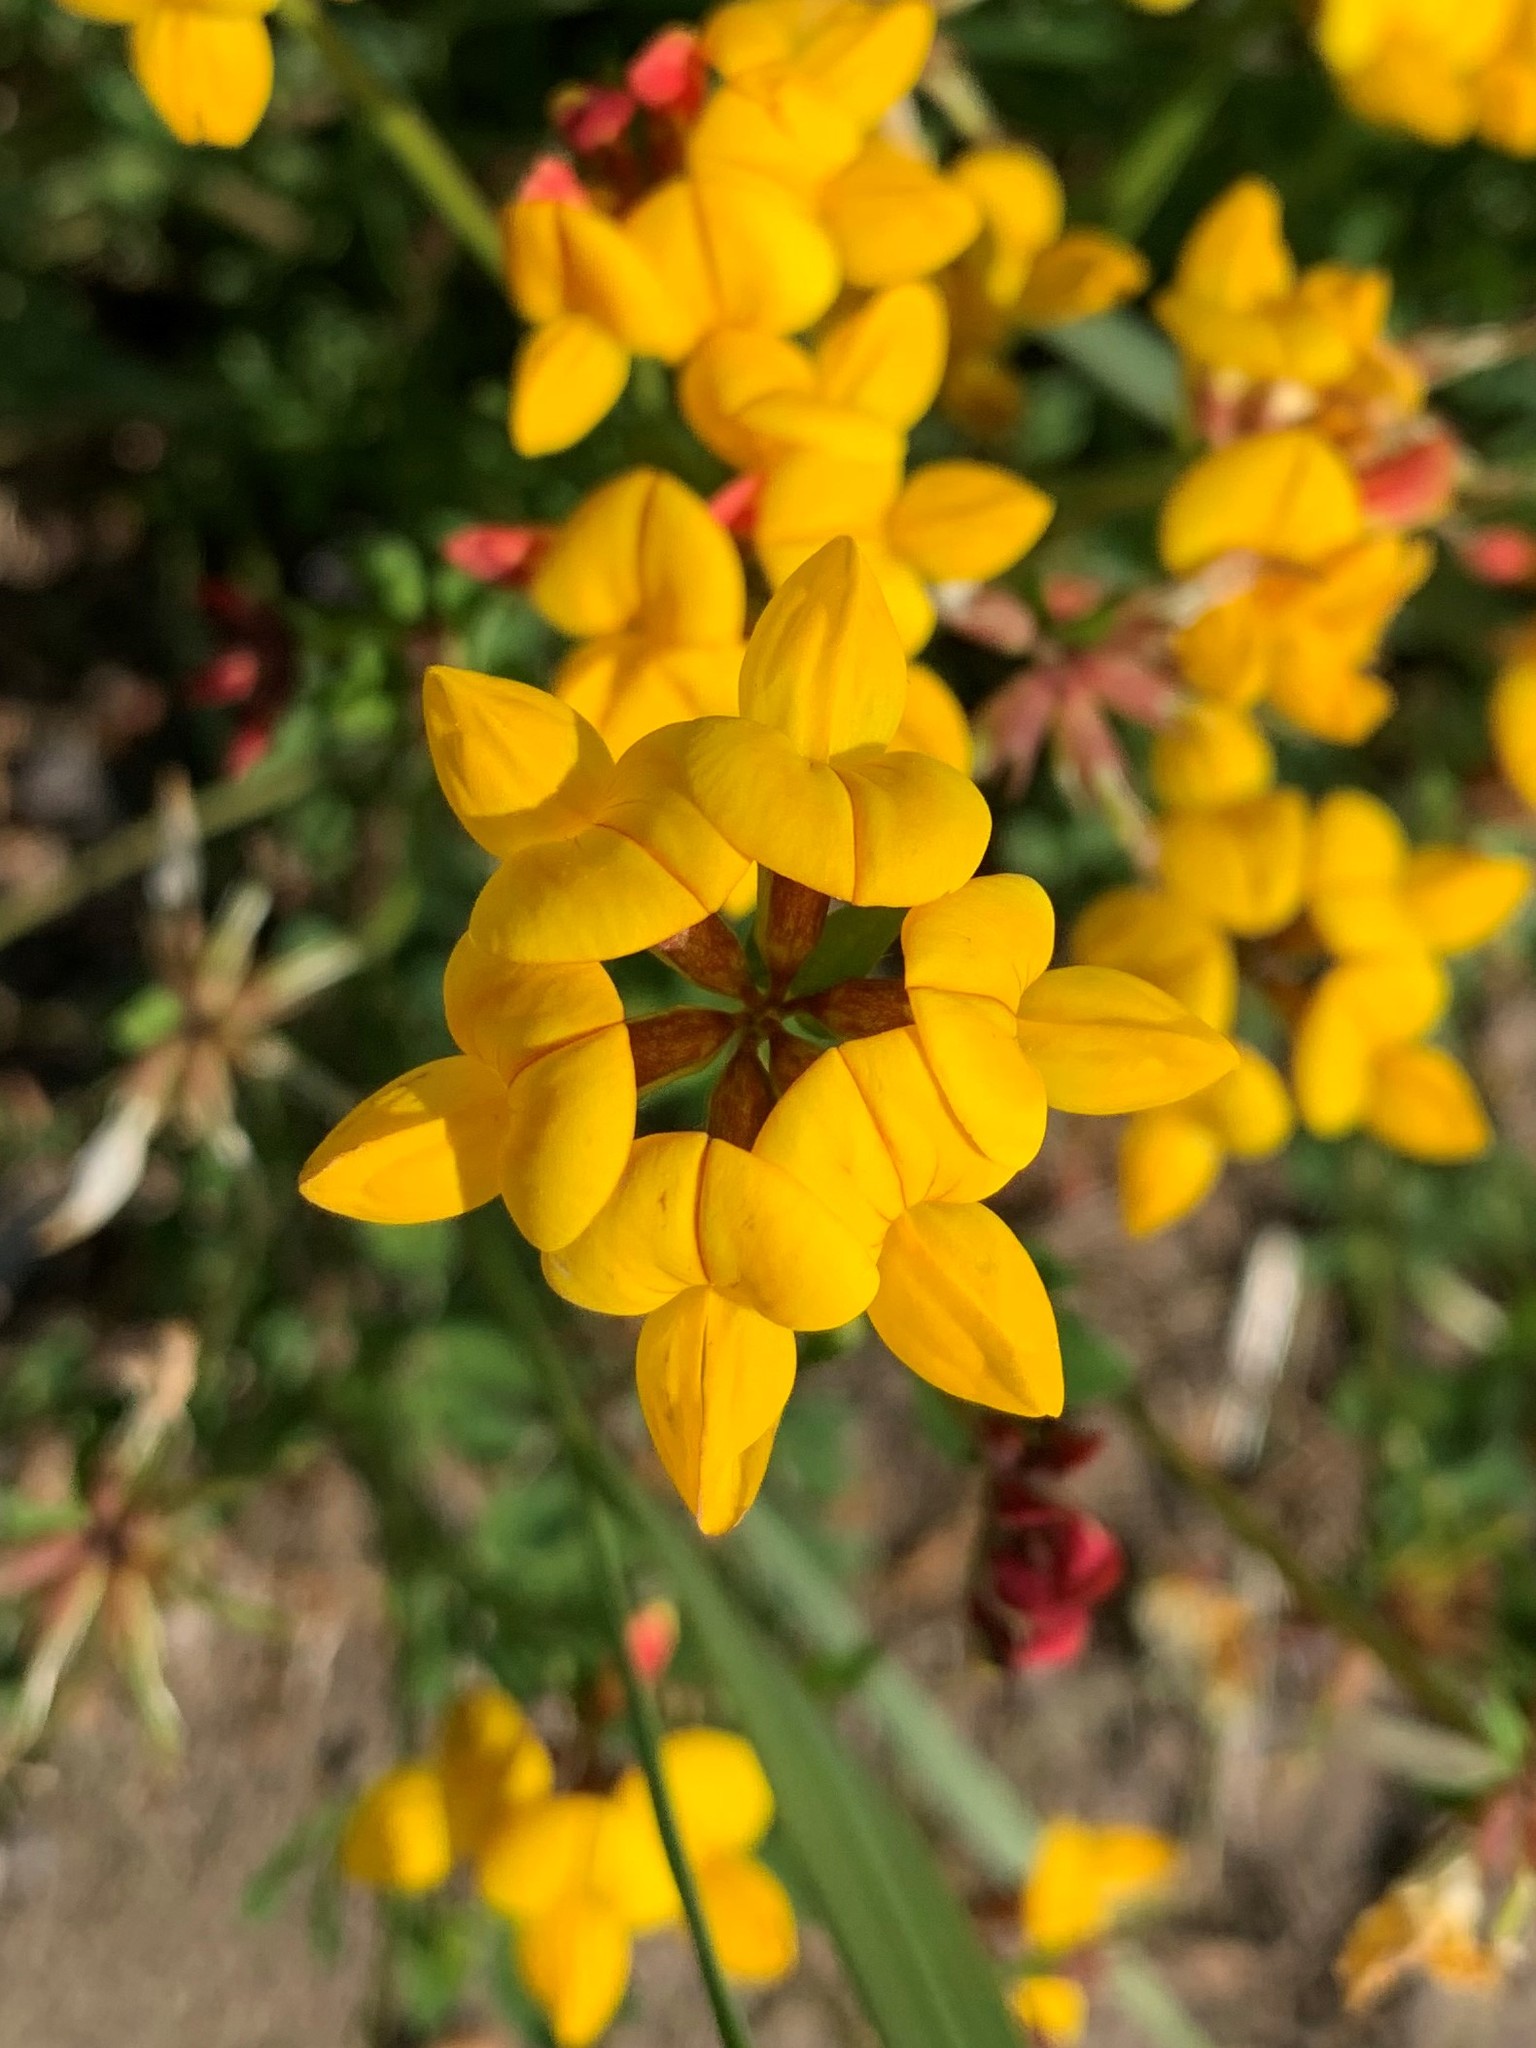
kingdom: Plantae
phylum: Tracheophyta
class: Magnoliopsida
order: Fabales
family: Fabaceae
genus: Lotus
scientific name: Lotus corniculatus
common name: Common bird's-foot-trefoil
